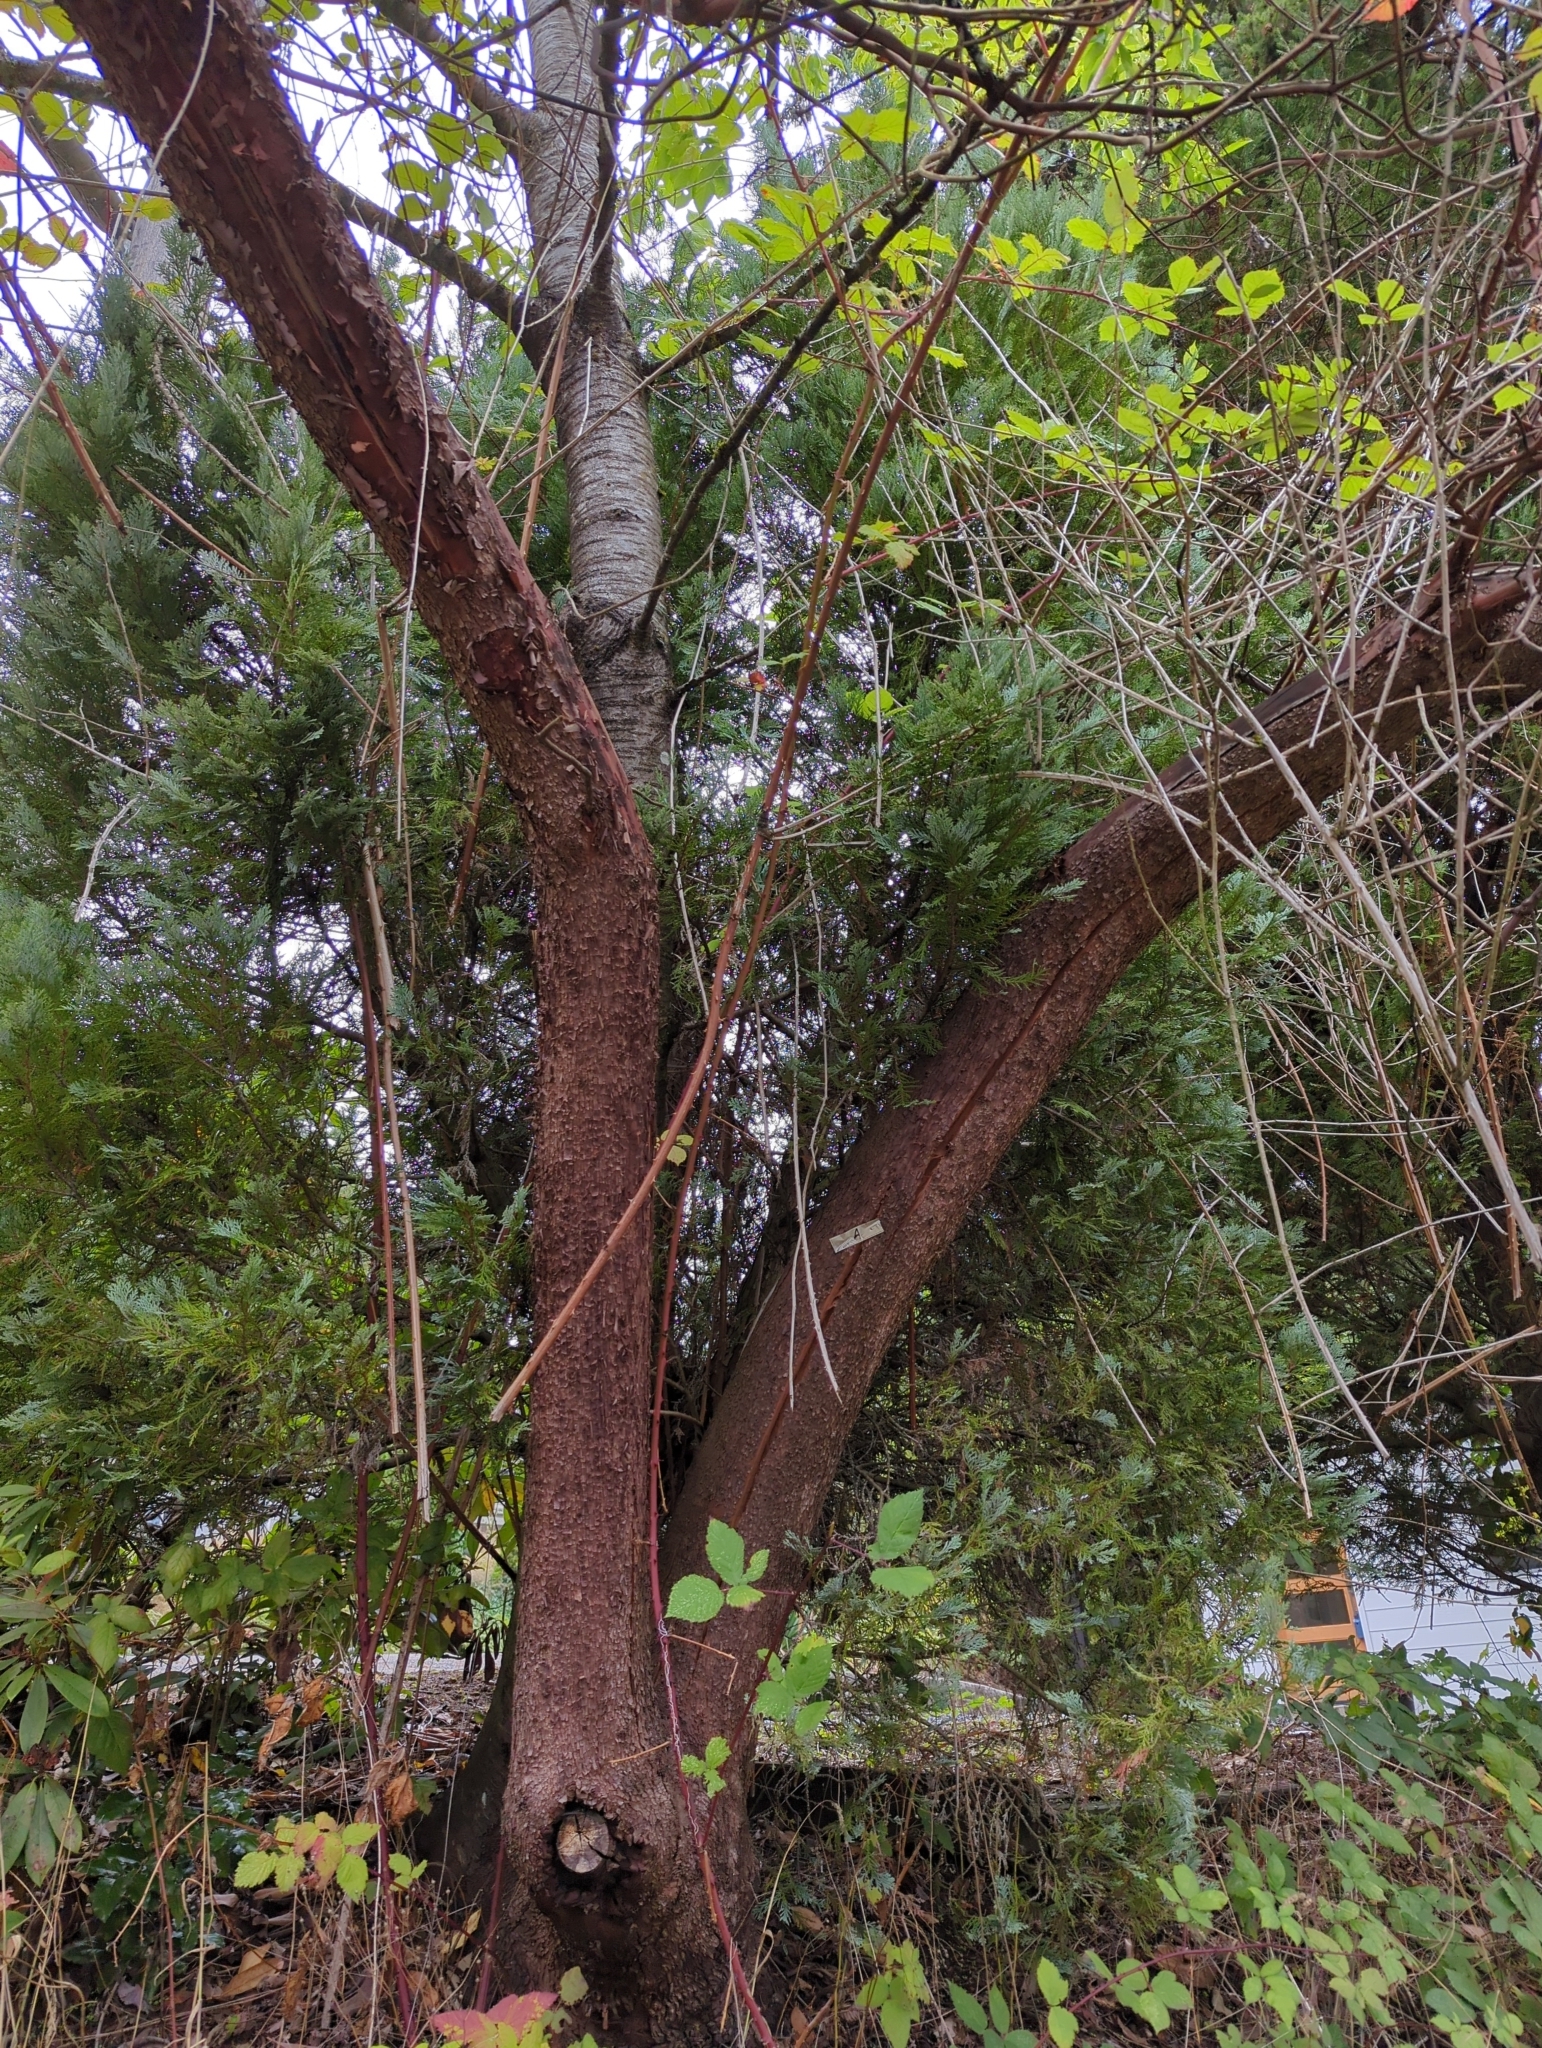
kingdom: Plantae
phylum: Tracheophyta
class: Magnoliopsida
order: Ericales
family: Ericaceae
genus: Arbutus
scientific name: Arbutus menziesii
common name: Pacific madrone
